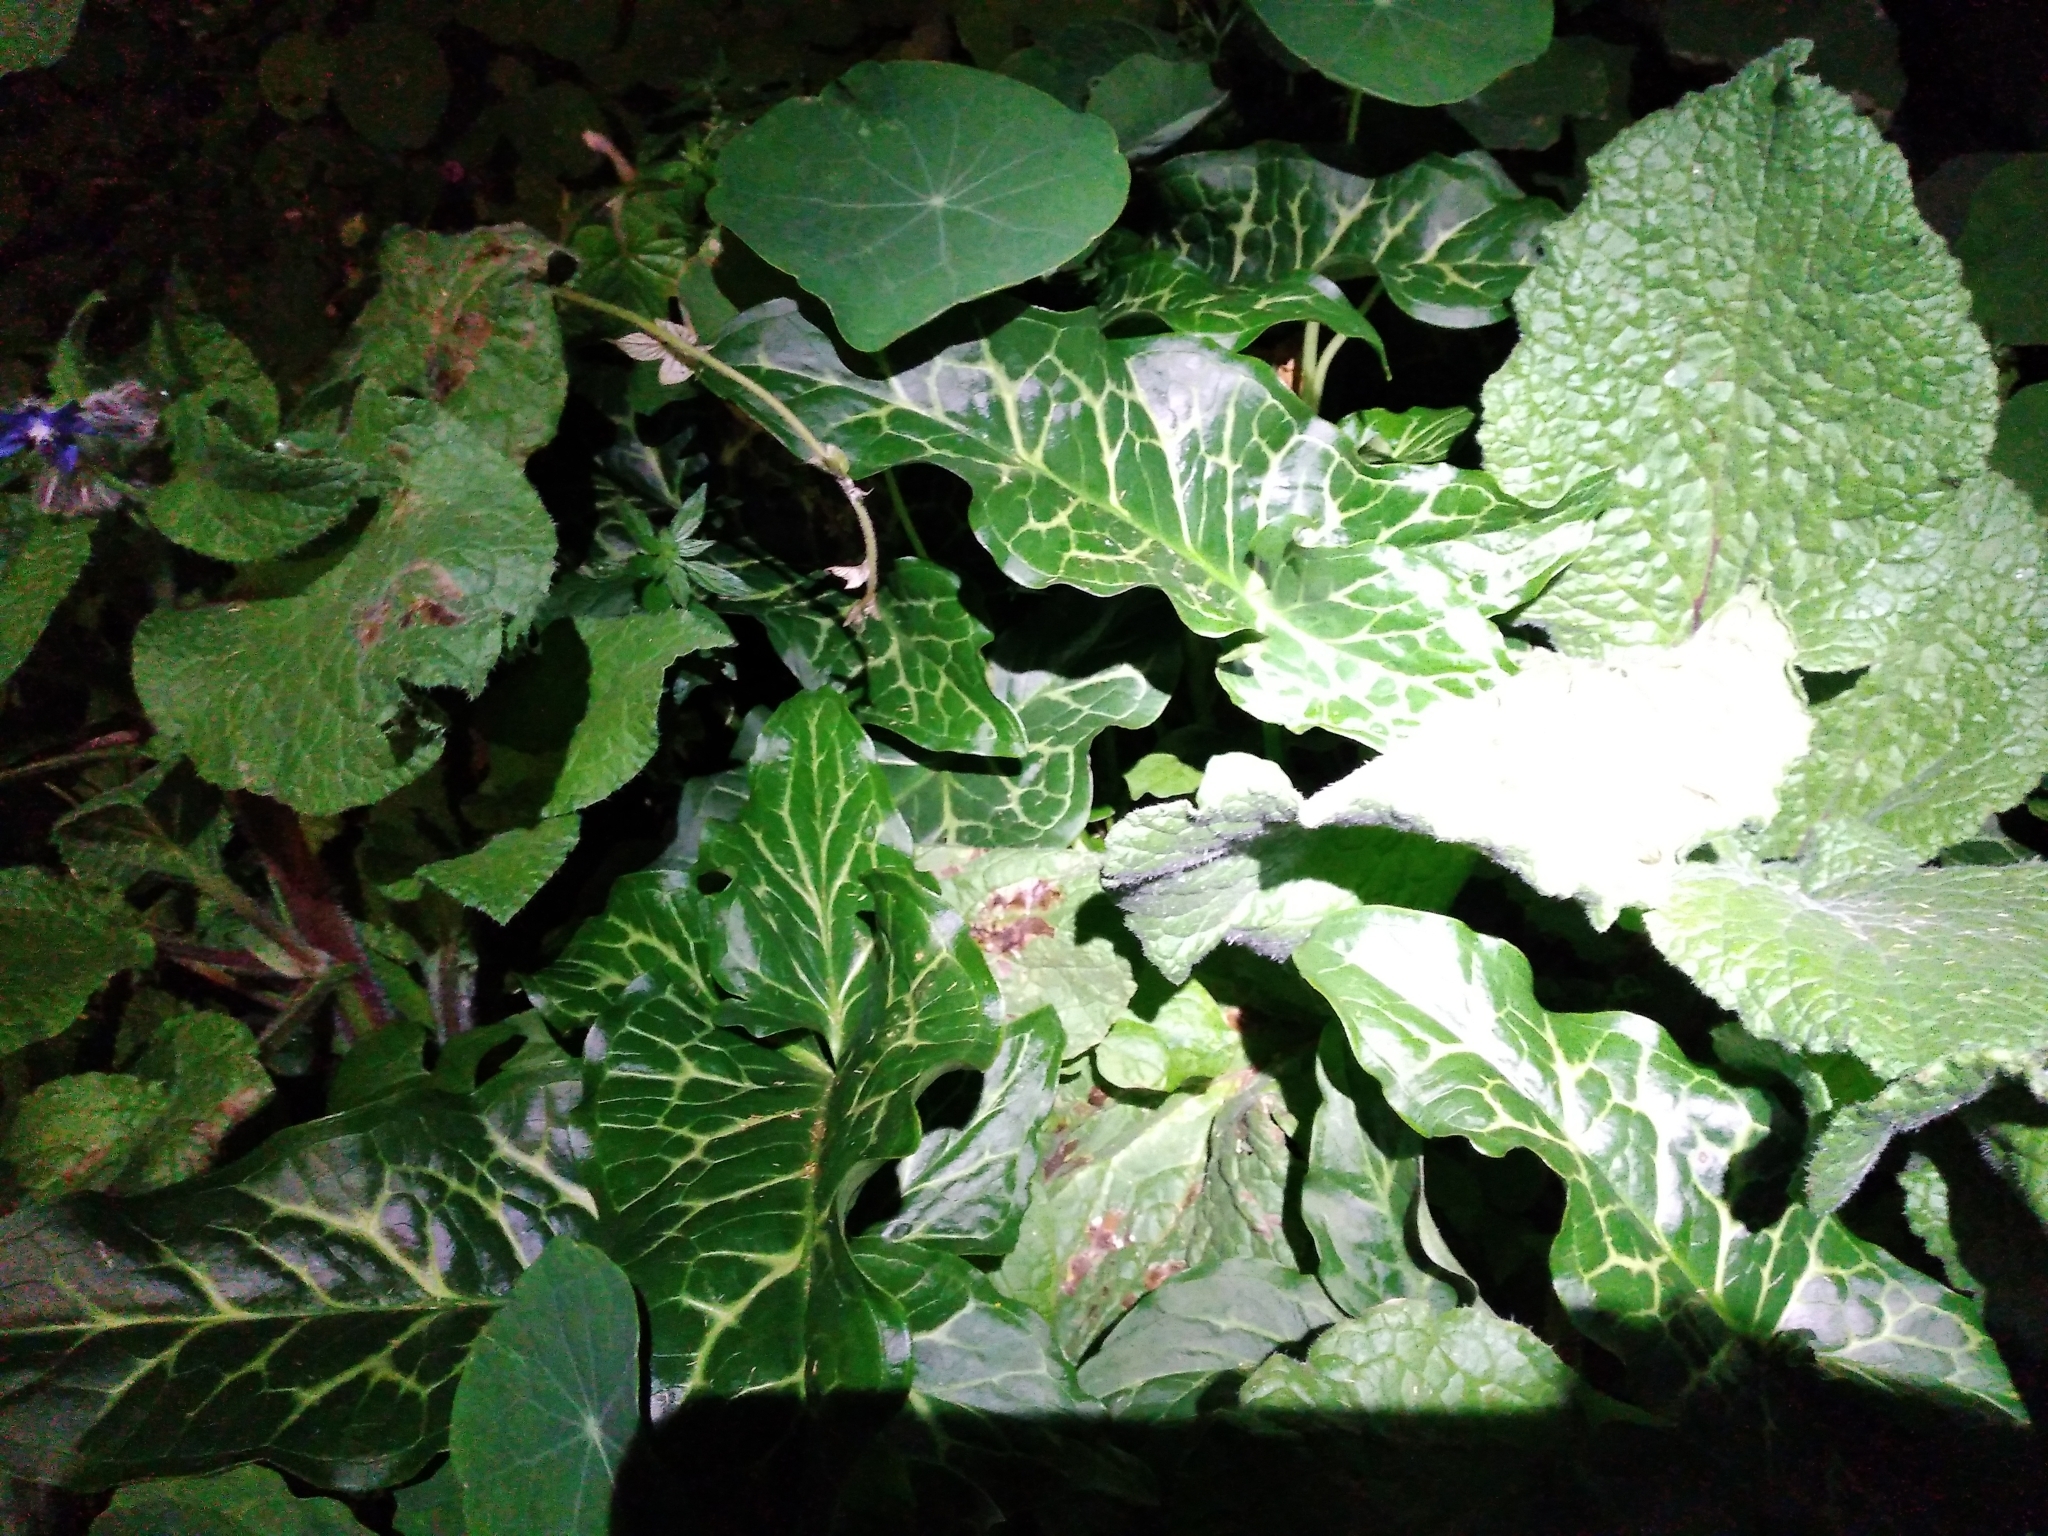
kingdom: Plantae
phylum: Tracheophyta
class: Liliopsida
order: Alismatales
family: Araceae
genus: Arum
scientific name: Arum italicum
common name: Italian lords-and-ladies
